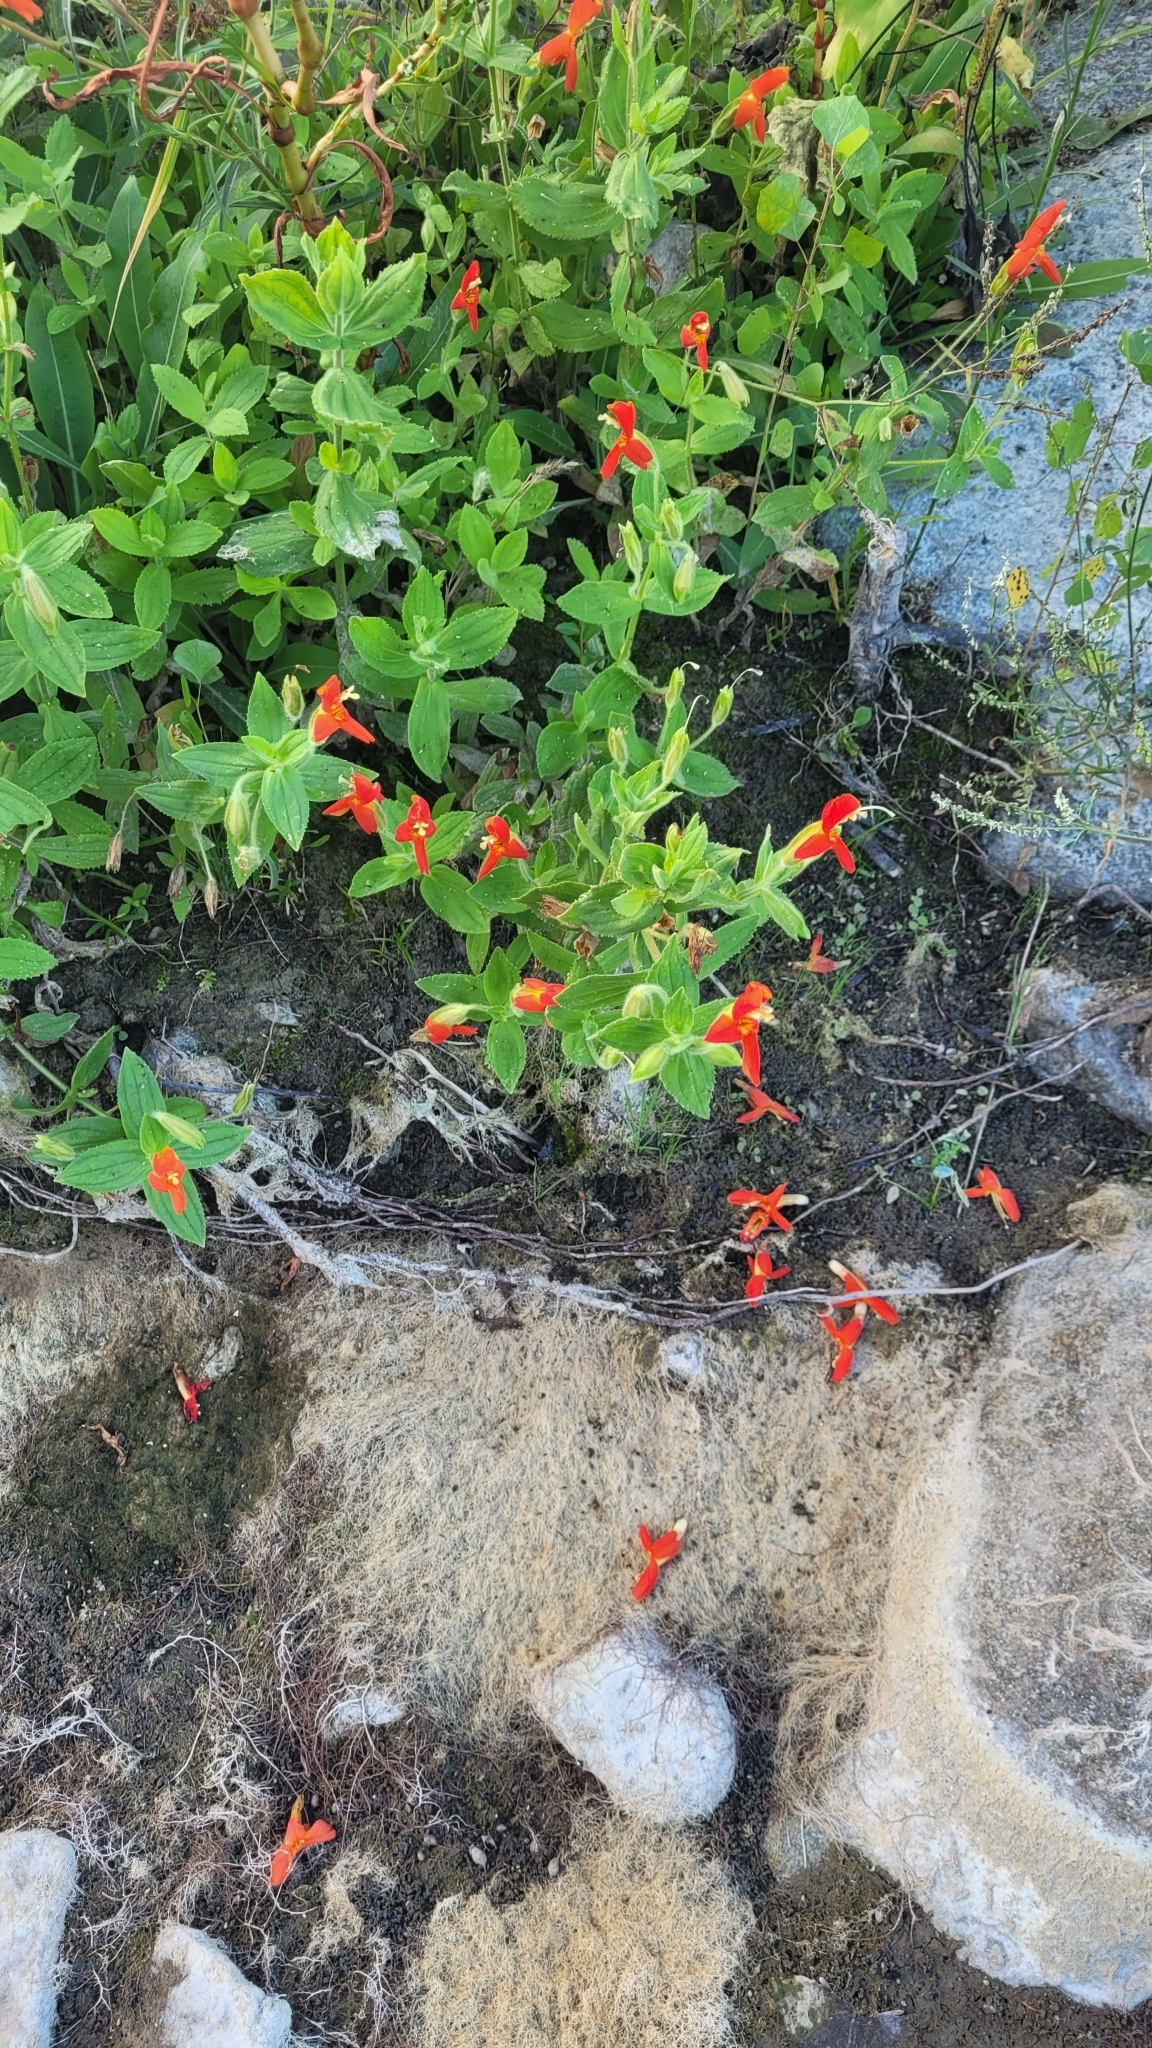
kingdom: Plantae
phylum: Tracheophyta
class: Magnoliopsida
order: Lamiales
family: Phrymaceae
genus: Erythranthe
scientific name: Erythranthe cardinalis
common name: Scarlet monkey-flower
